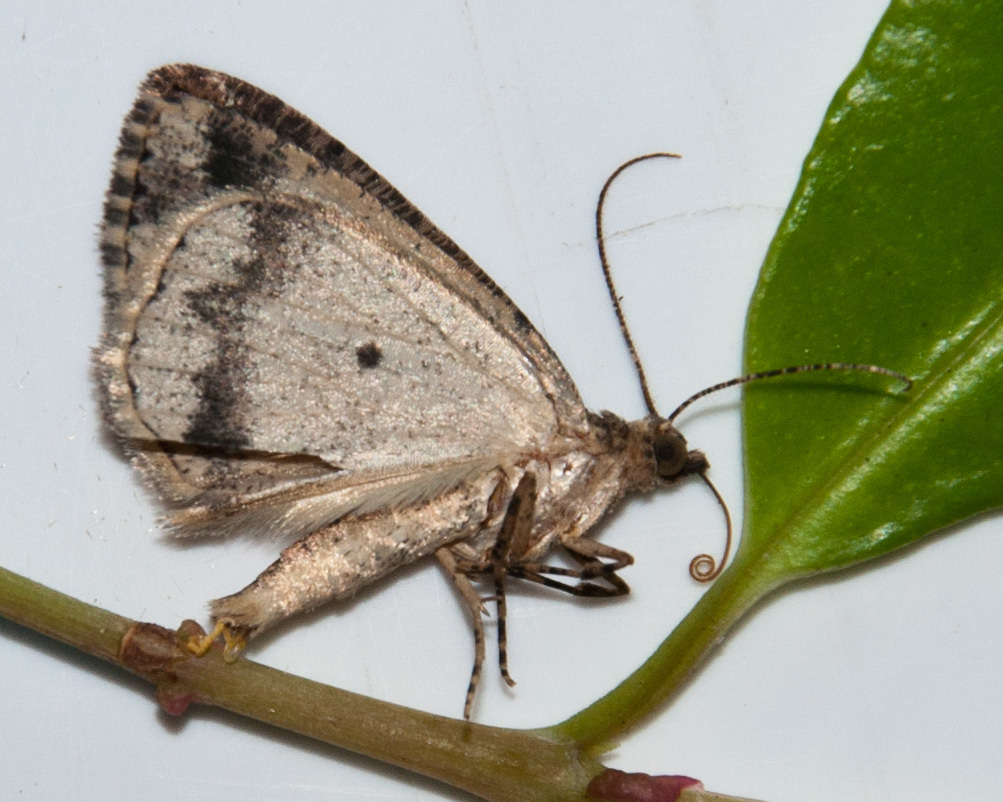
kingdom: Animalia
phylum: Arthropoda
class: Insecta
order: Lepidoptera
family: Geometridae
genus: Xylopteryx
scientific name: Xylopteryx arcuata
